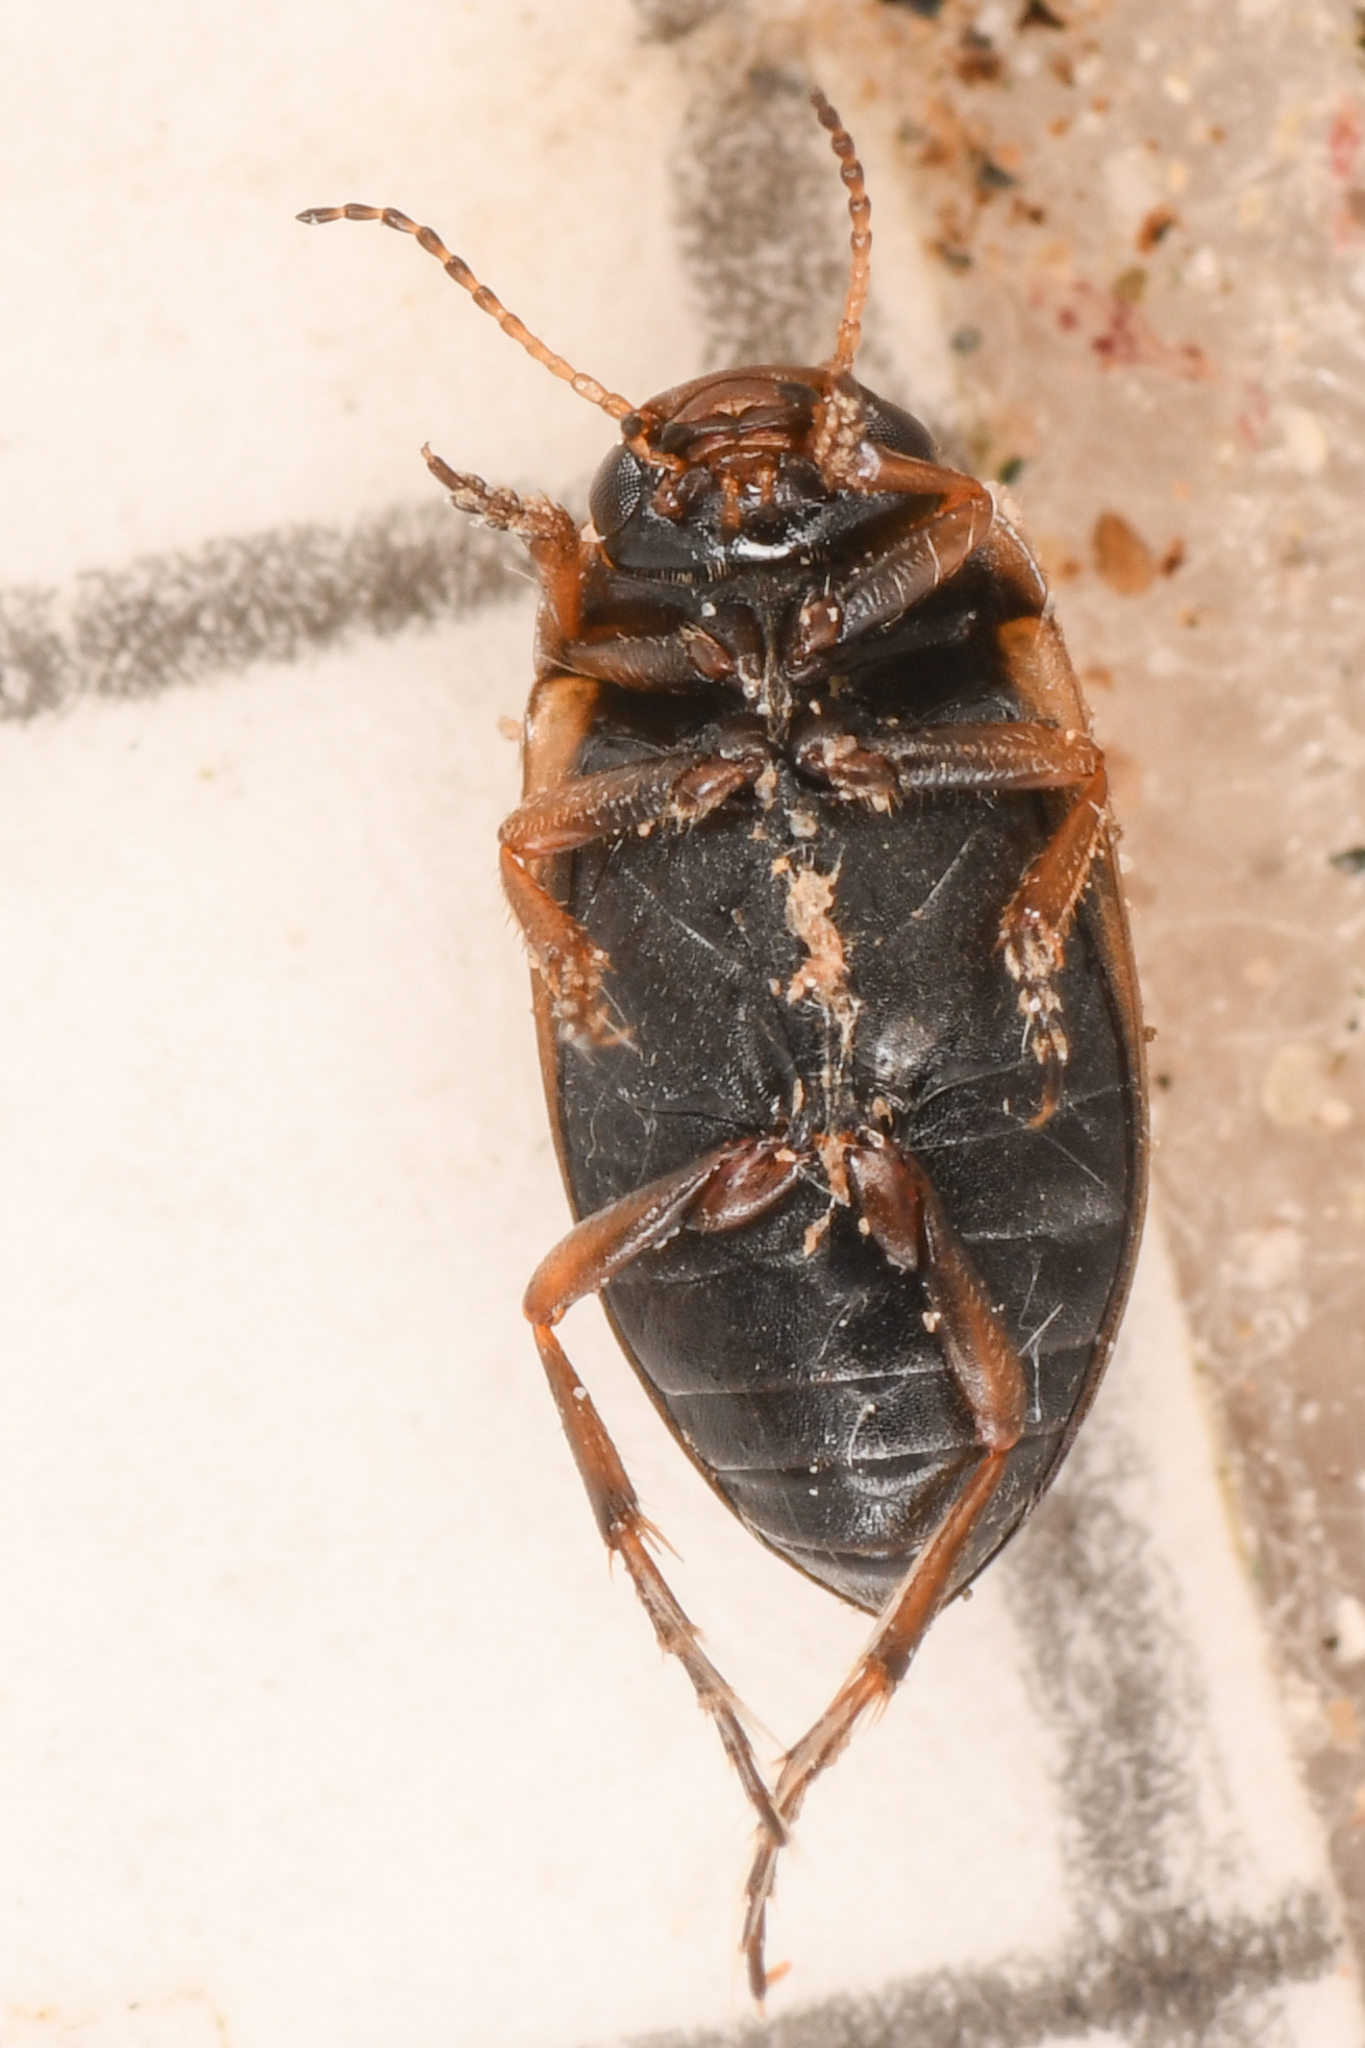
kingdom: Animalia
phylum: Arthropoda
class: Insecta
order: Coleoptera
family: Dytiscidae
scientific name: Dytiscidae
